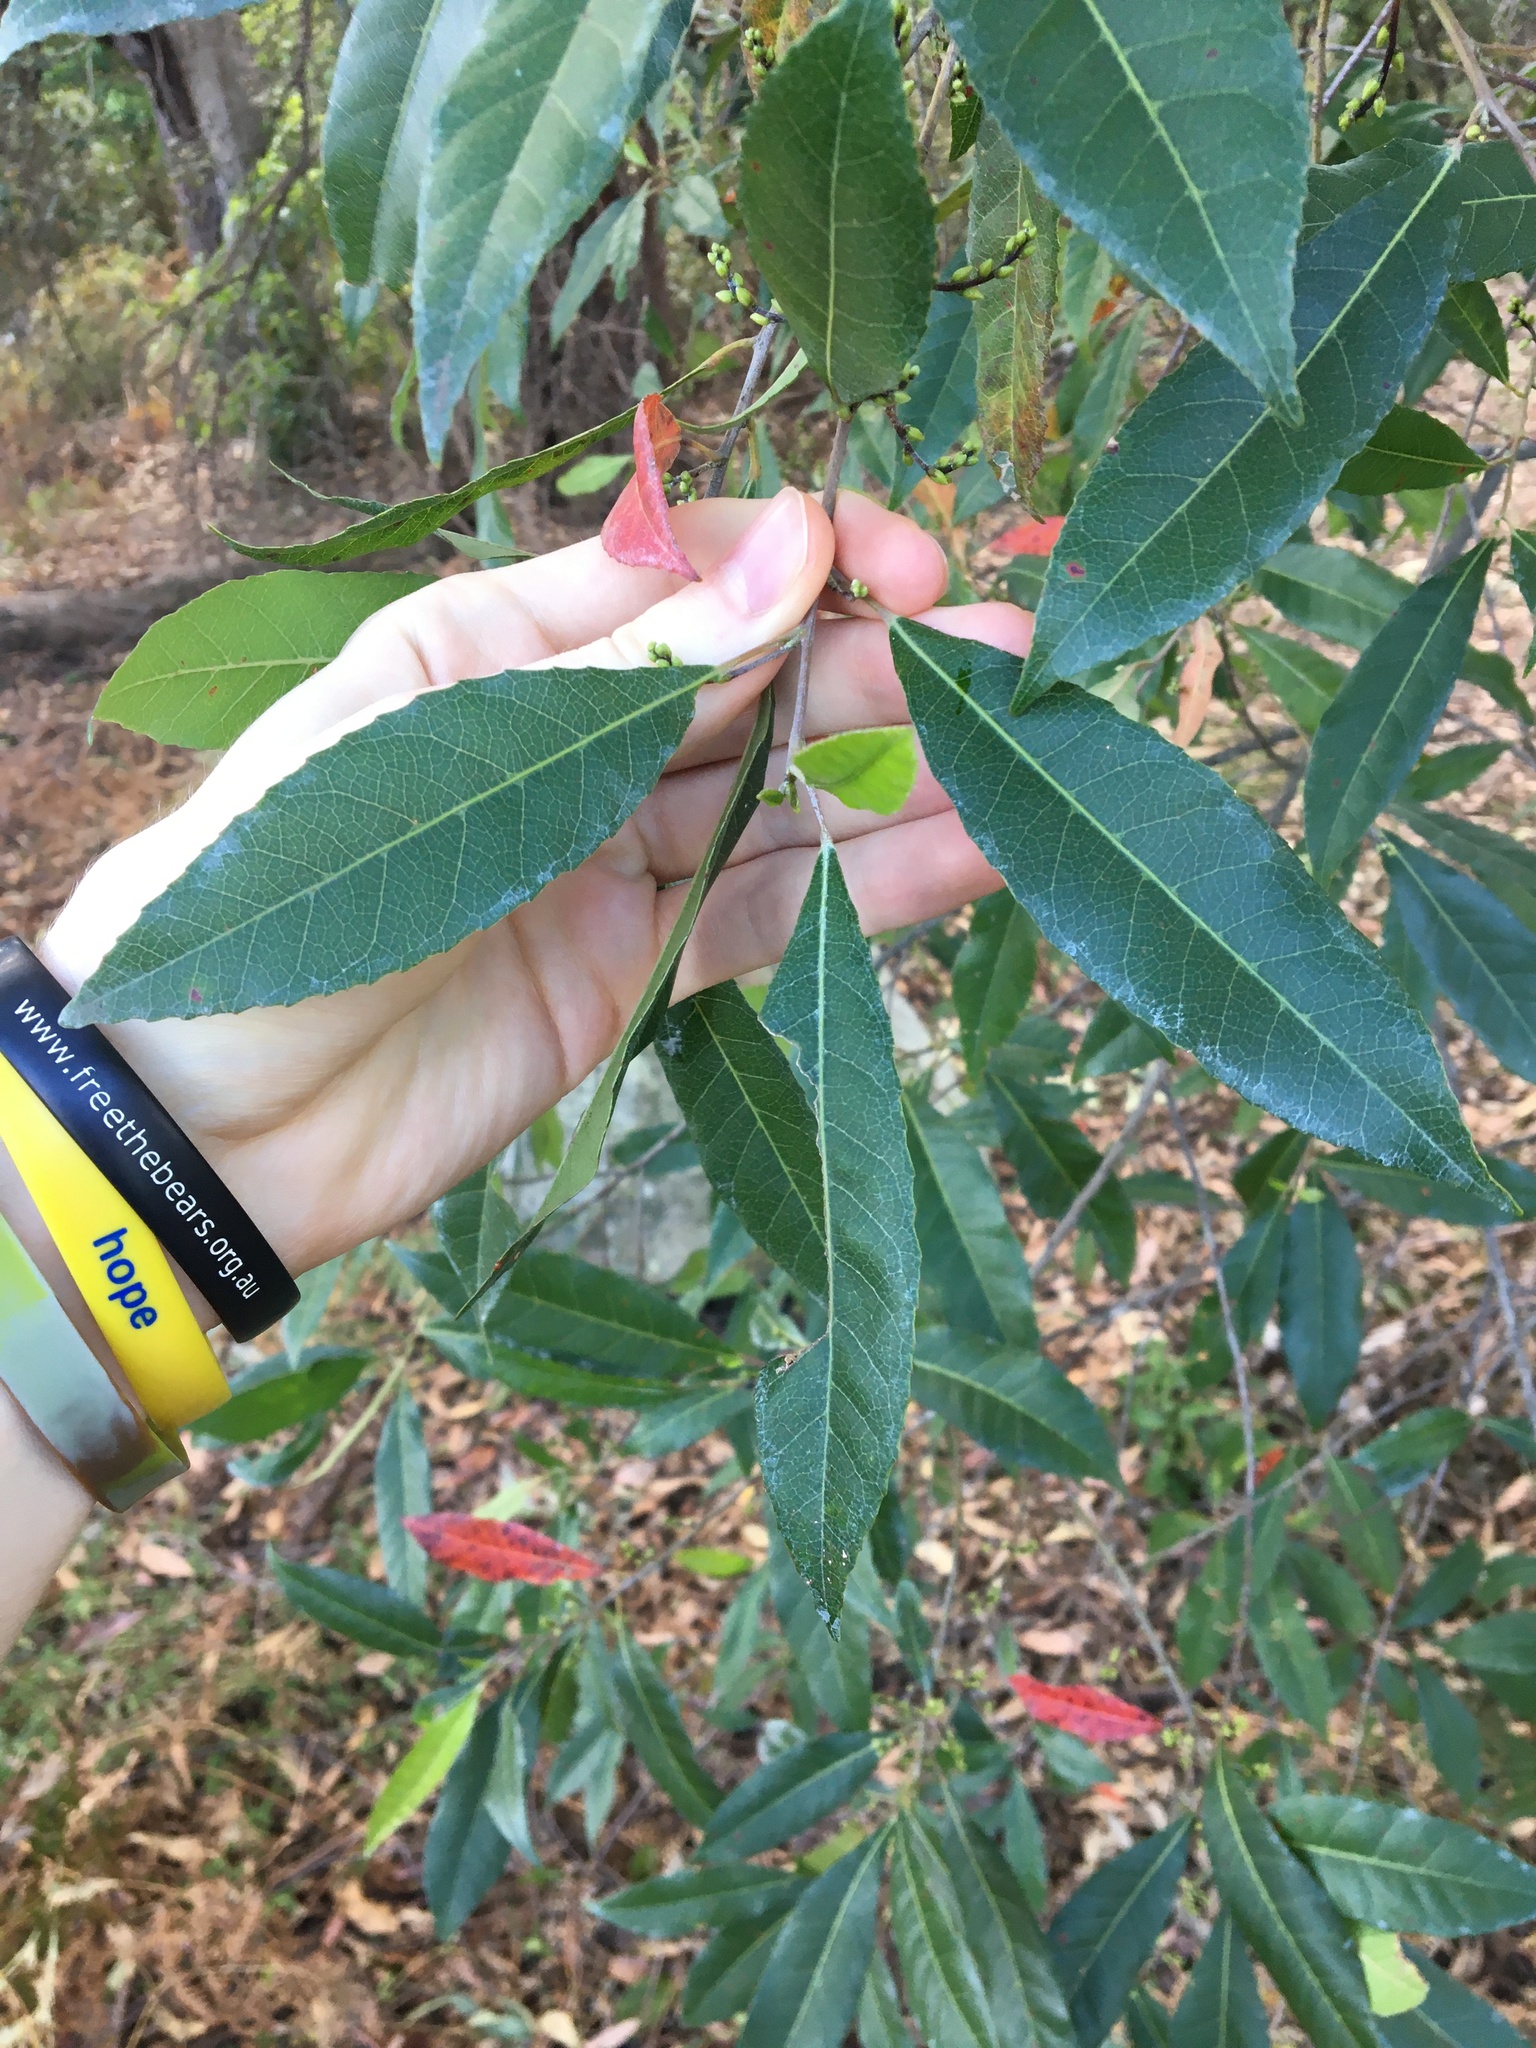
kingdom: Plantae
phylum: Tracheophyta
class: Magnoliopsida
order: Oxalidales
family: Elaeocarpaceae
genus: Elaeocarpus
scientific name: Elaeocarpus reticulatus
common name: Ash quandong
